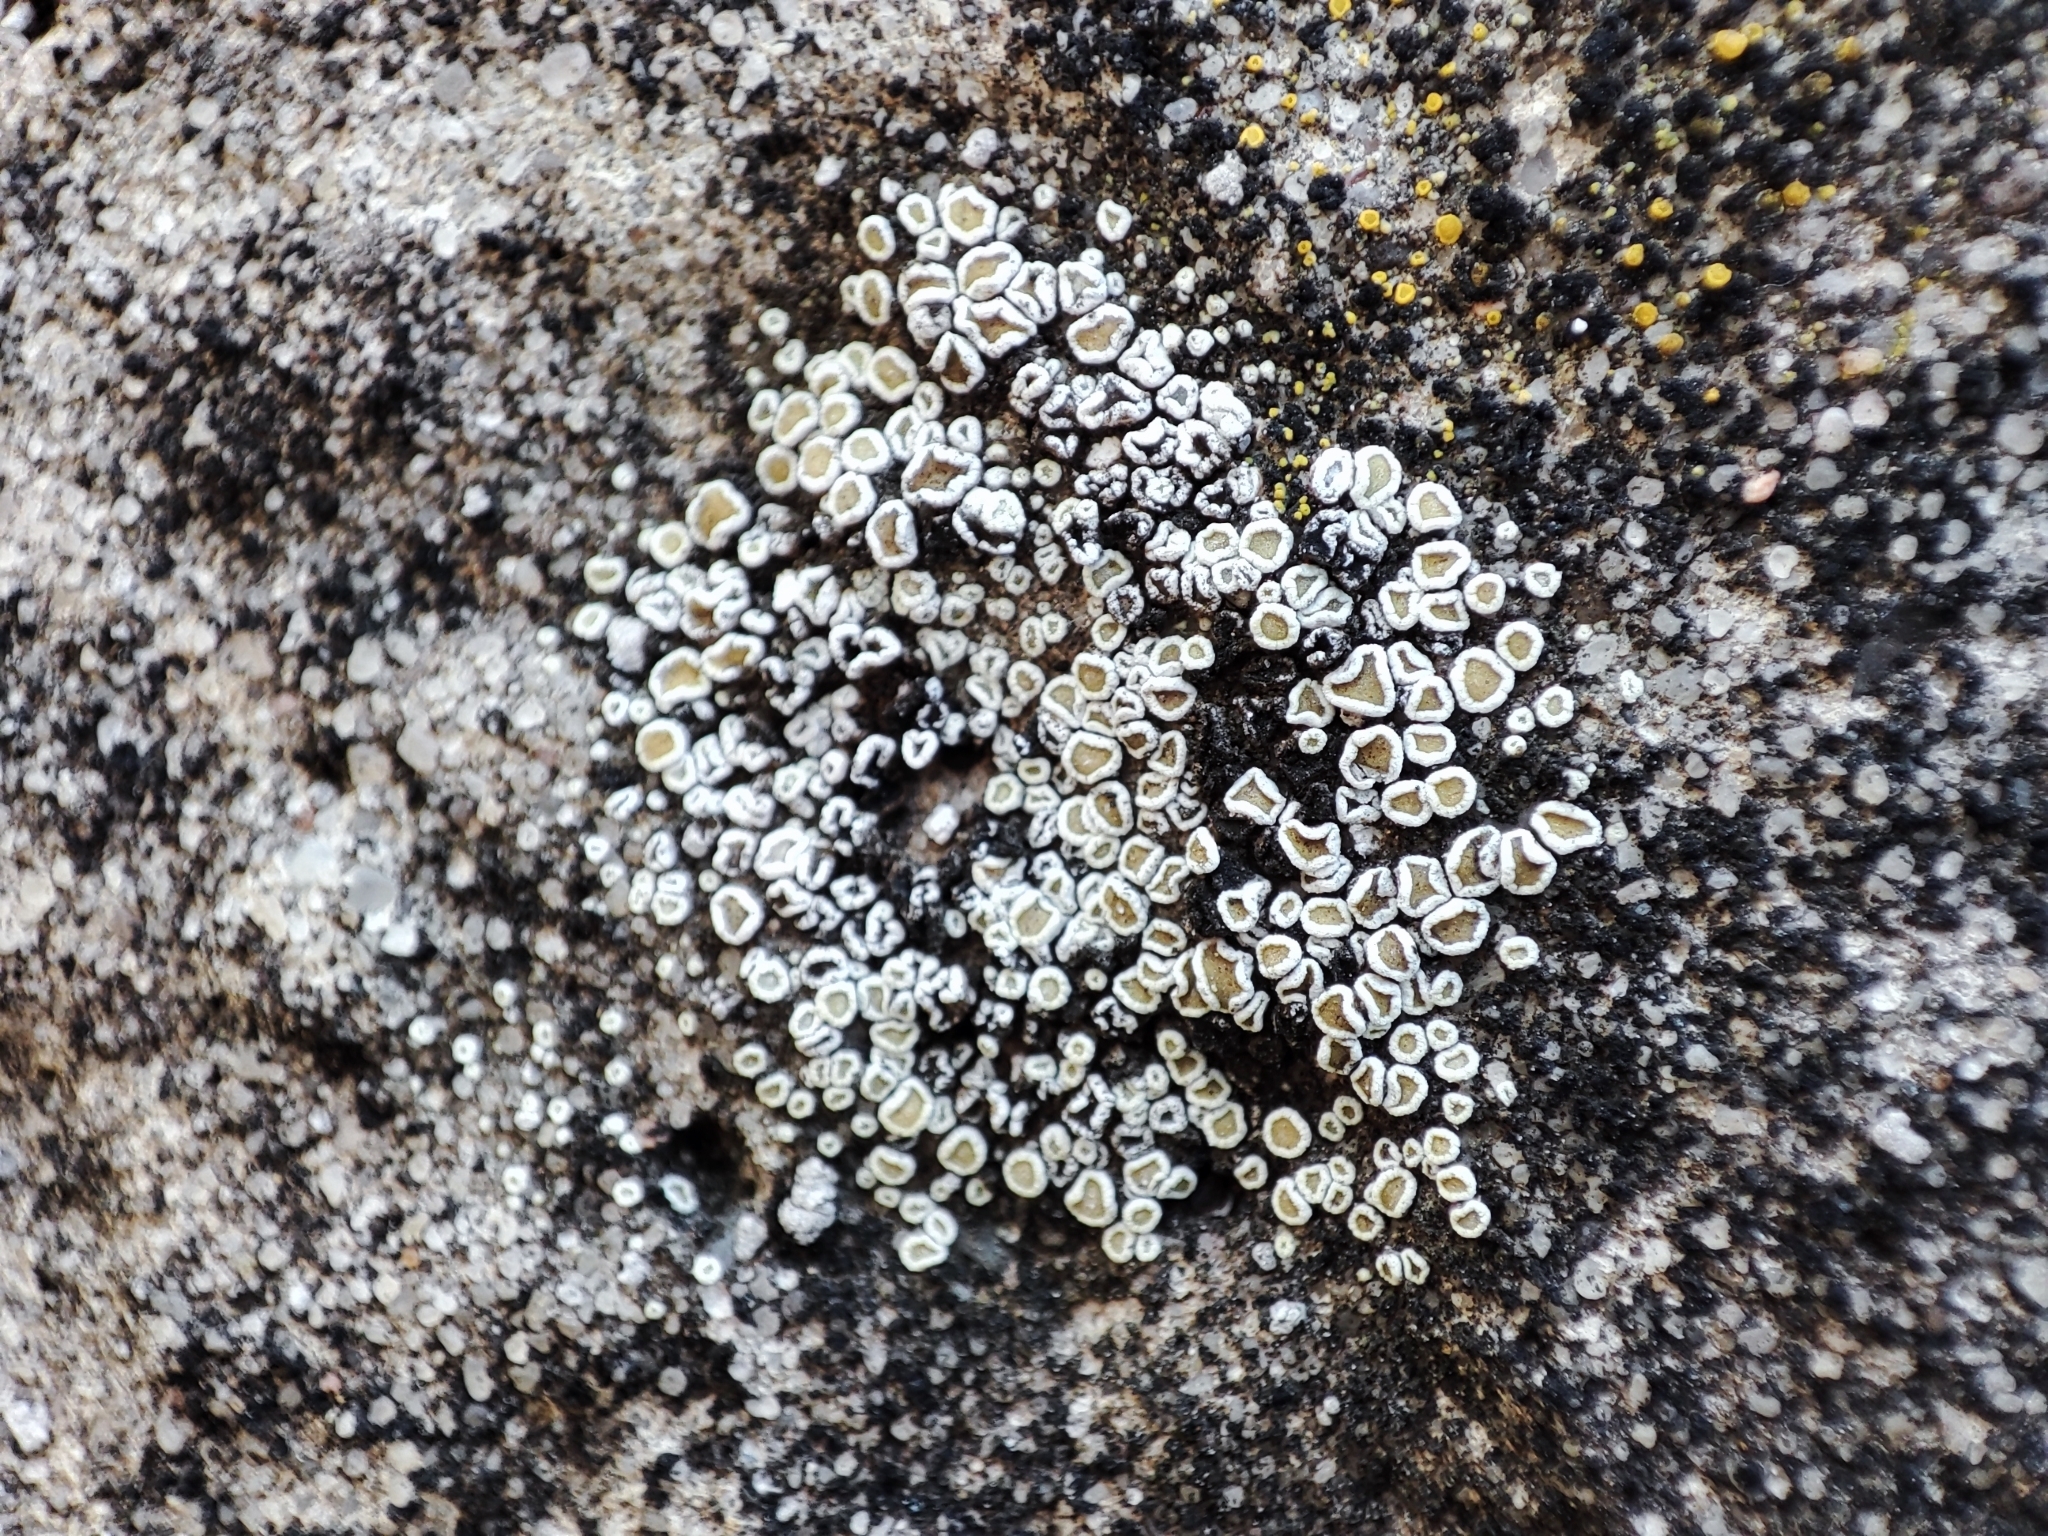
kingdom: Fungi
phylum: Ascomycota
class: Lecanoromycetes
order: Lecanorales
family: Lecanoraceae
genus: Polyozosia
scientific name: Polyozosia semipallida
